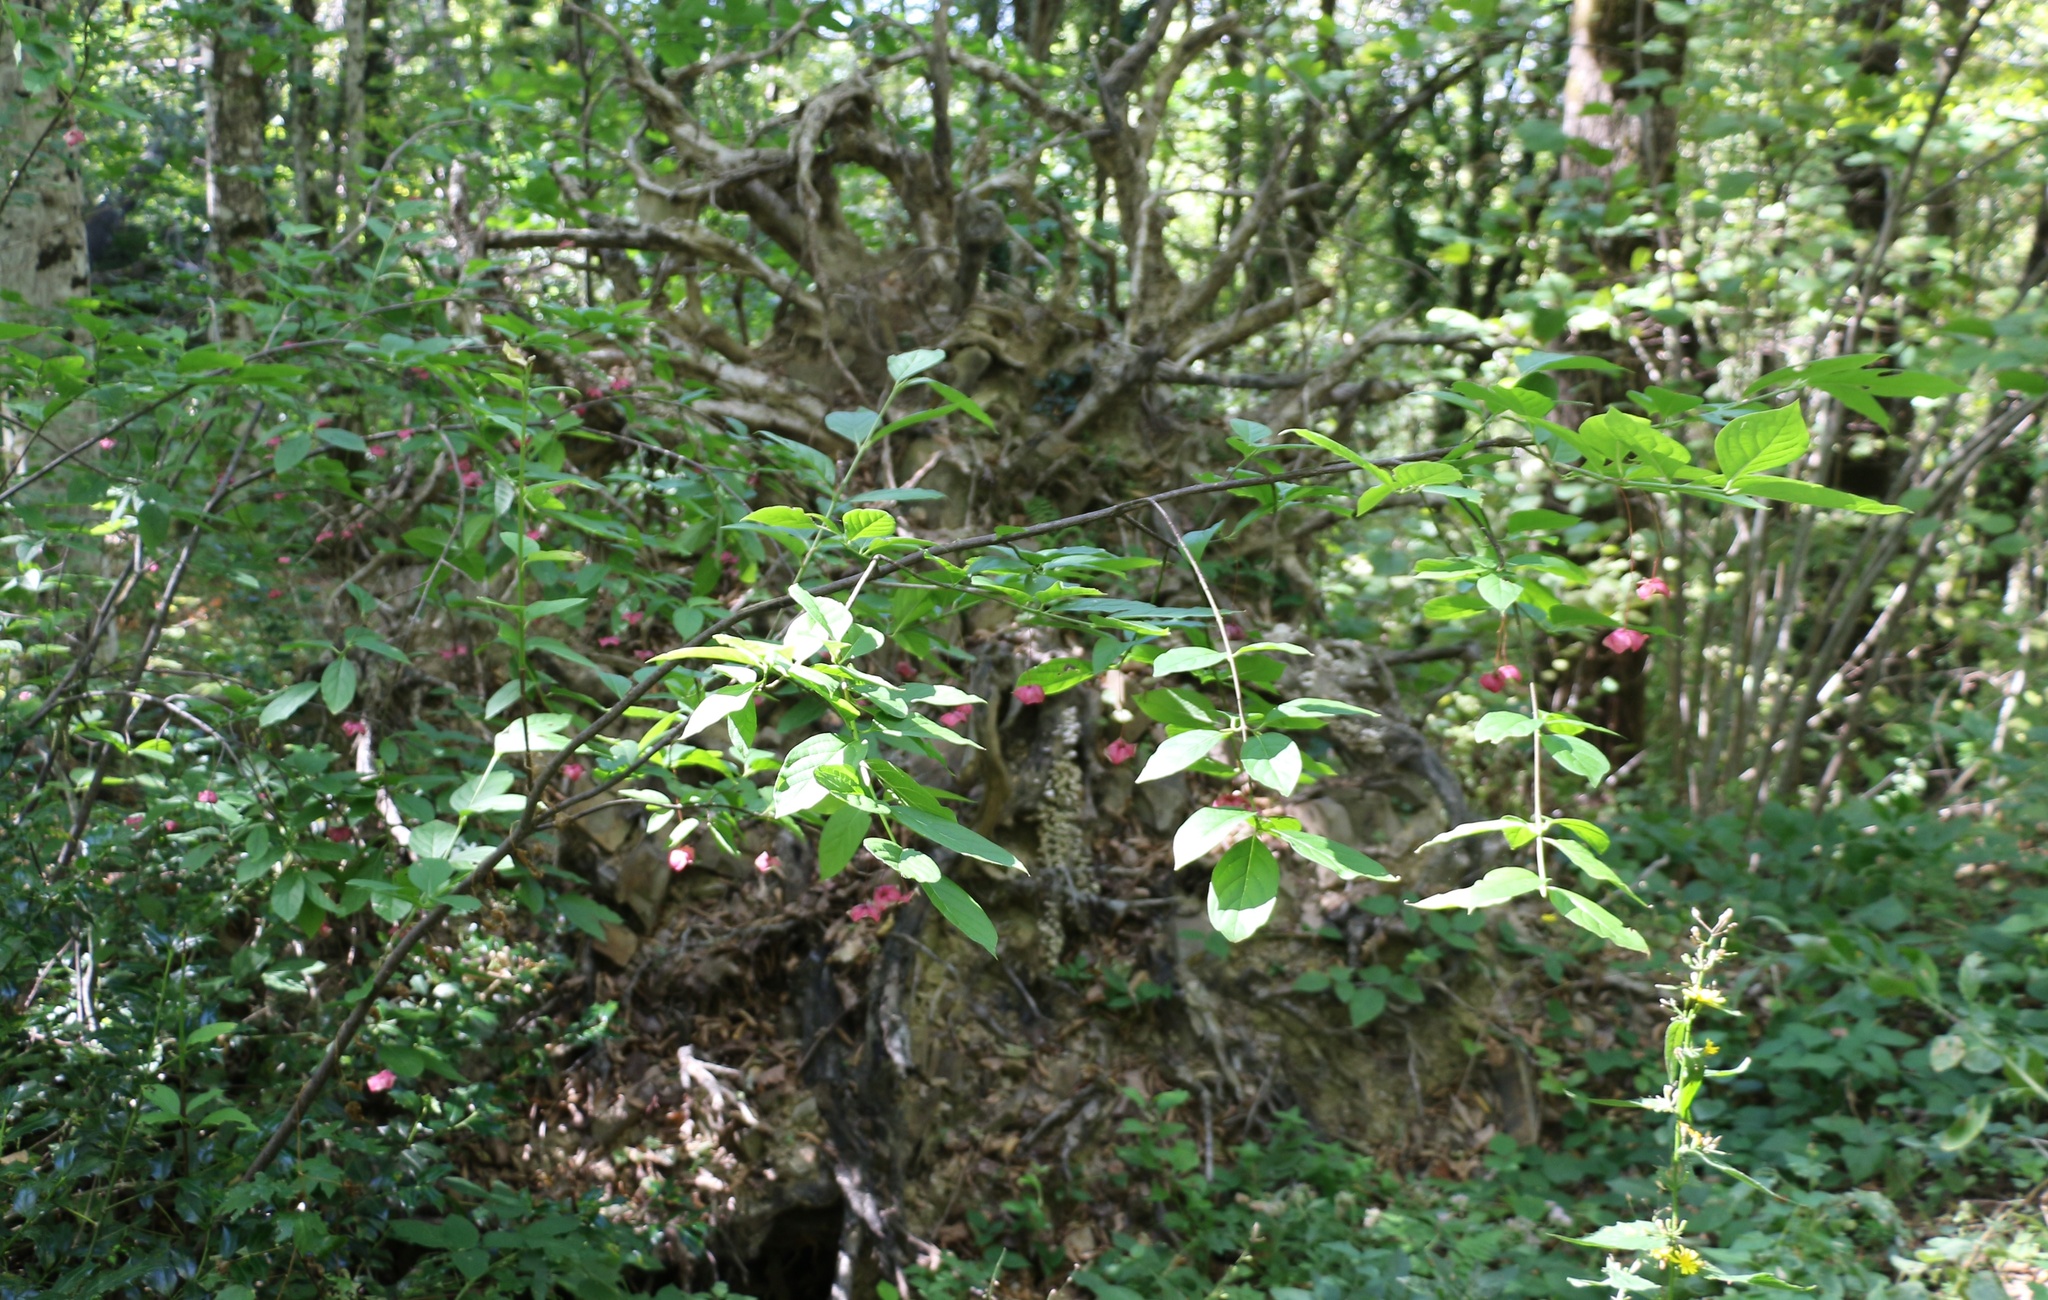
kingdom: Plantae
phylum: Tracheophyta
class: Magnoliopsida
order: Celastrales
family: Celastraceae
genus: Euonymus
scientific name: Euonymus latifolius
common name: Large-leaved spindle
